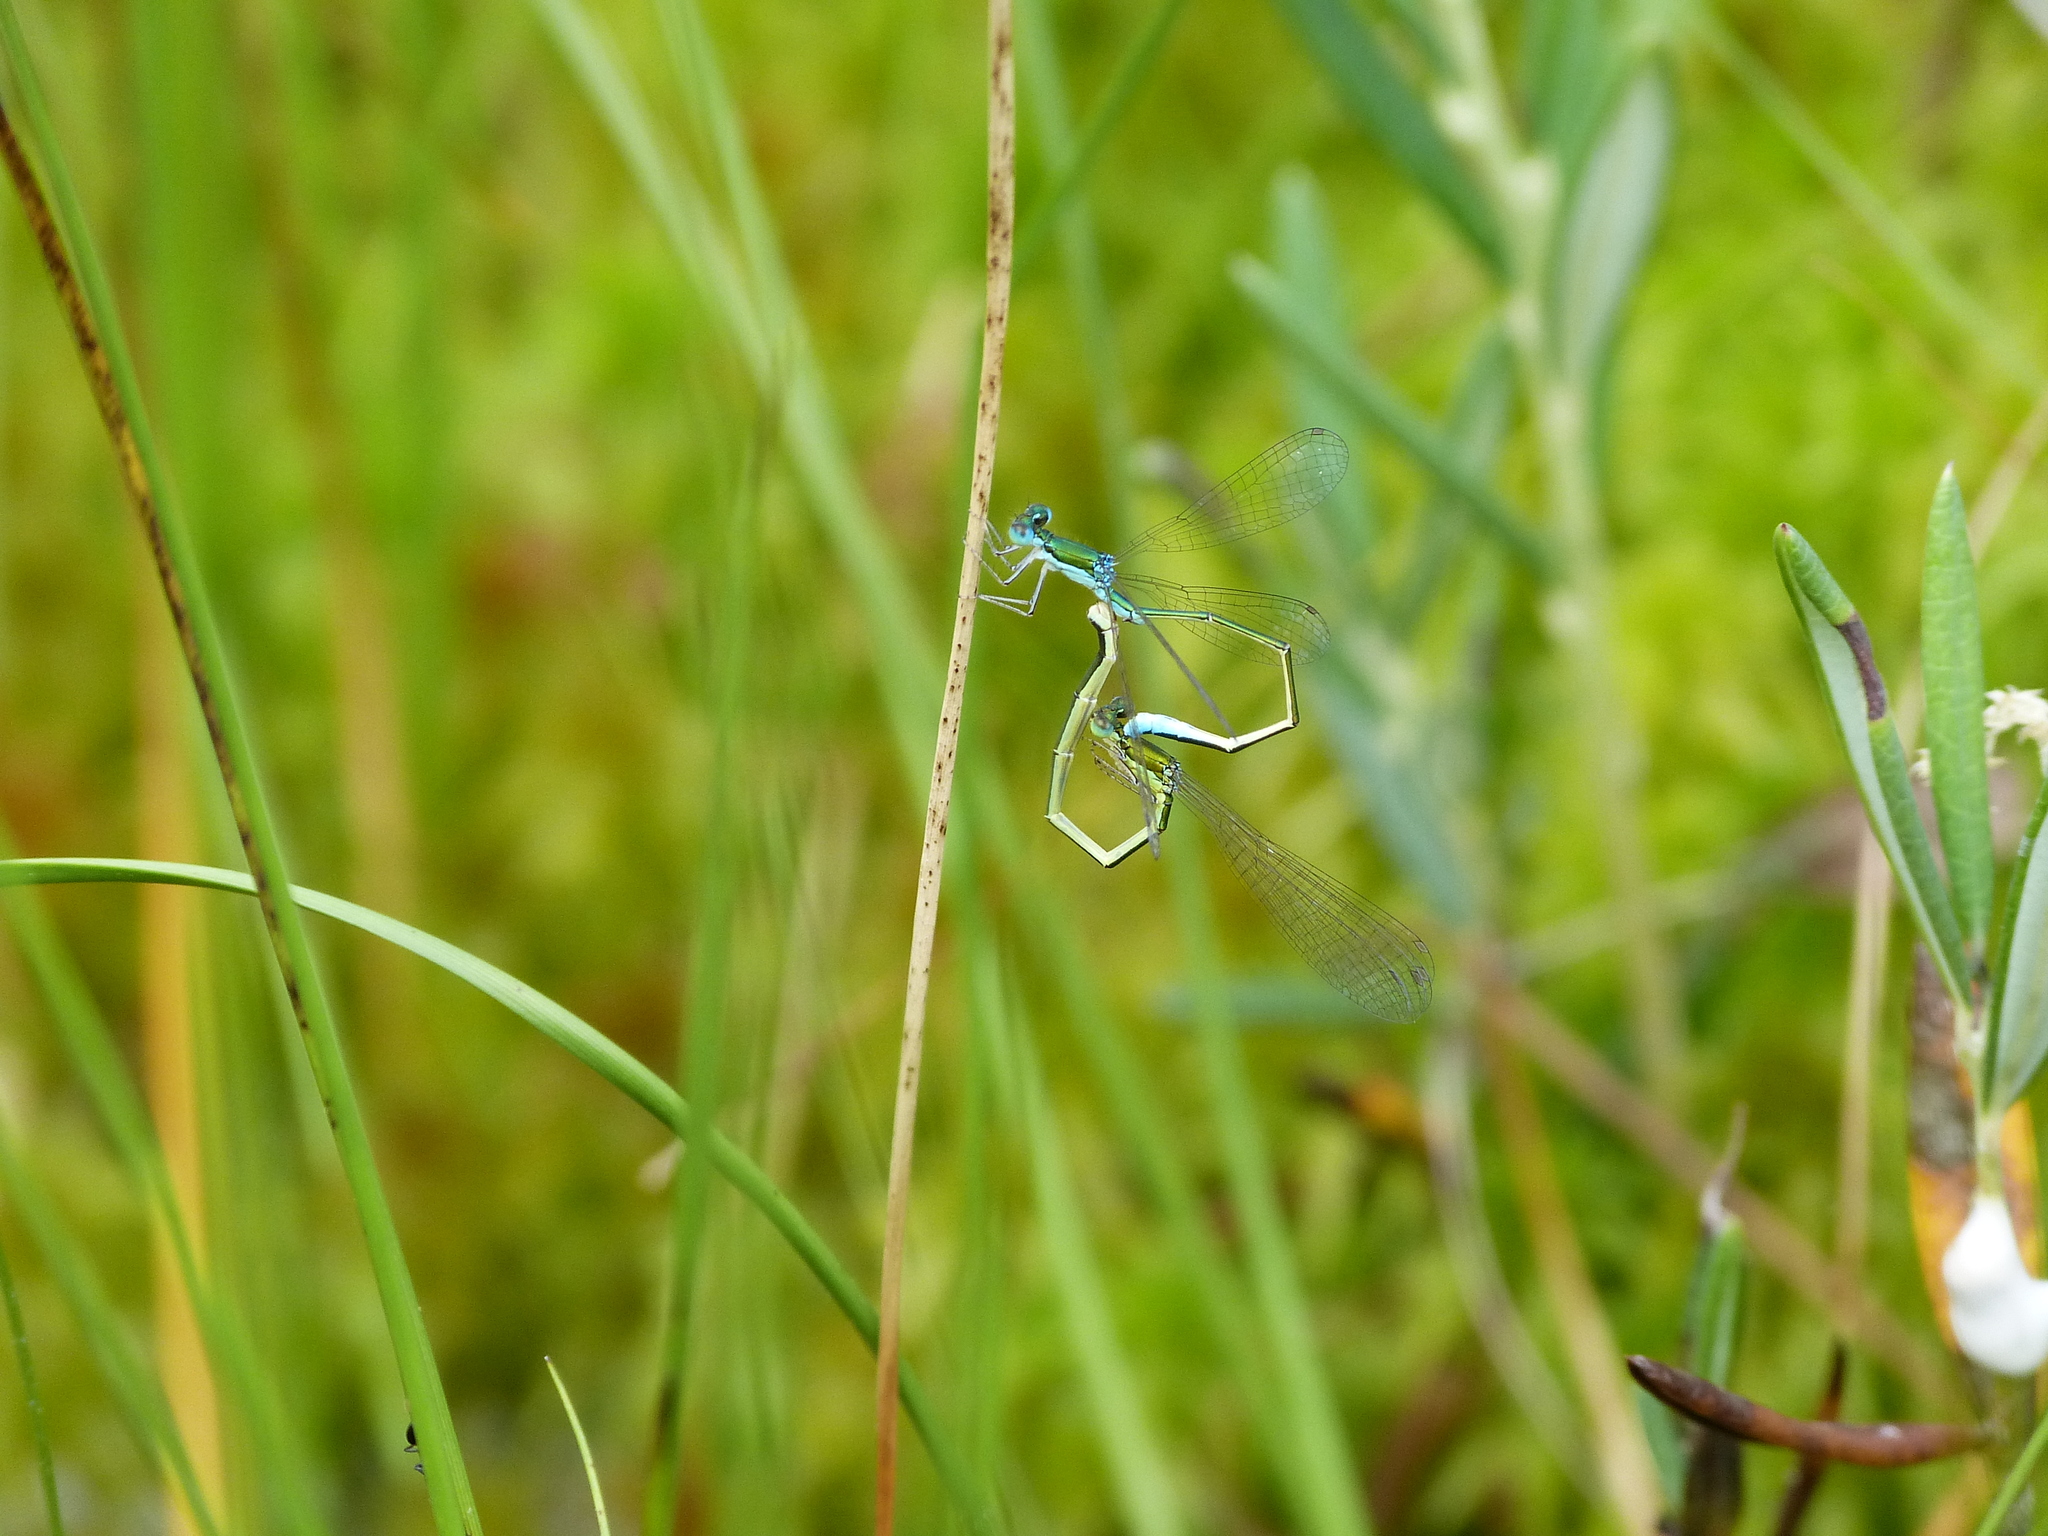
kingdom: Animalia
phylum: Arthropoda
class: Insecta
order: Odonata
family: Coenagrionidae
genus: Nehalennia
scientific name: Nehalennia irene
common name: Sedge sprite
